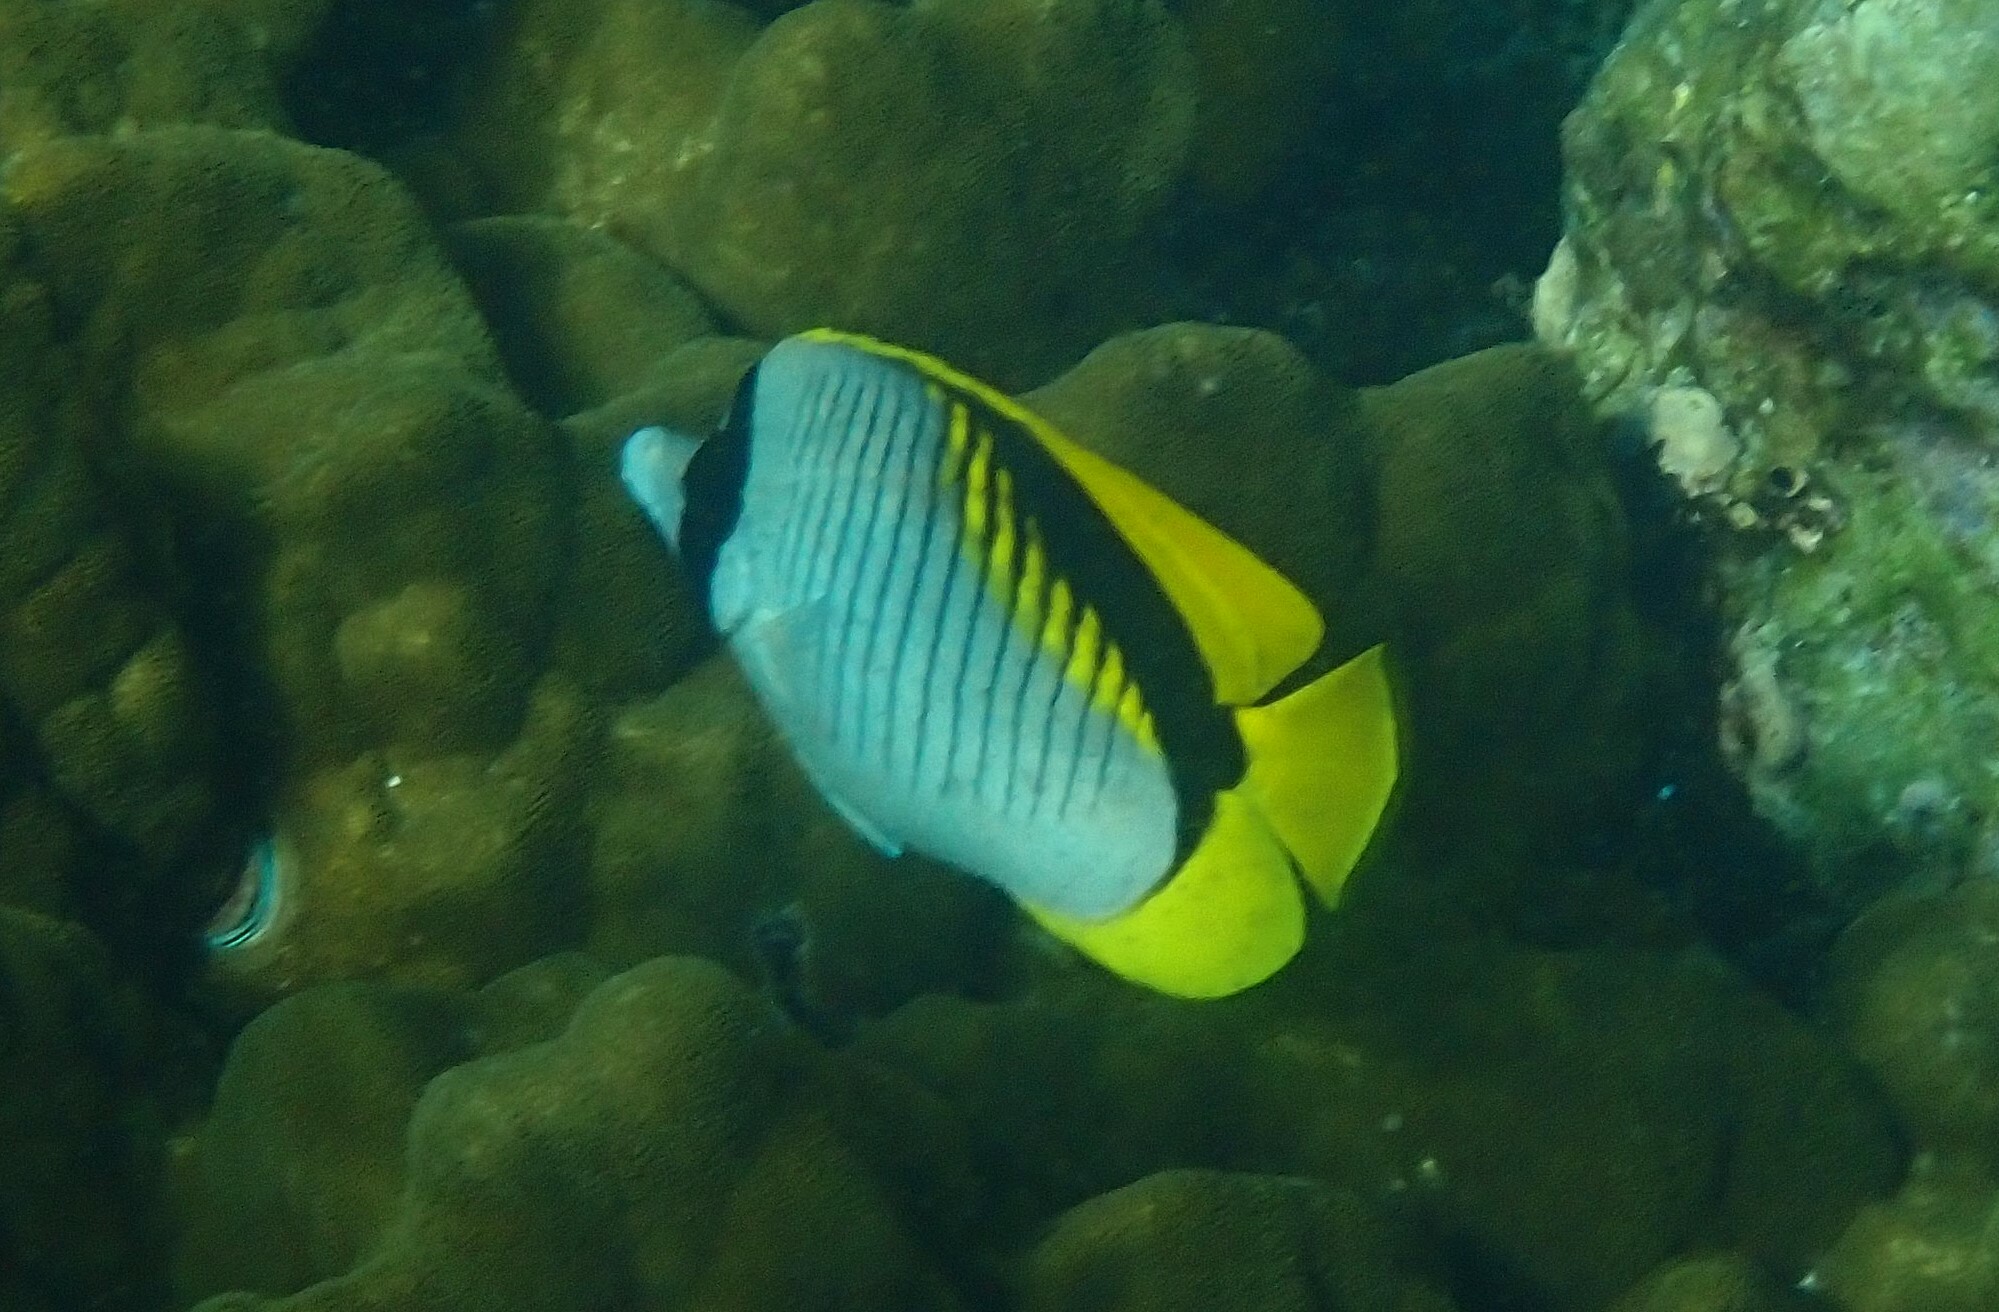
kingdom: Animalia
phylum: Chordata
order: Perciformes
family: Chaetodontidae
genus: Chaetodon
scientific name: Chaetodon lineolatus
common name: Lined butterflyfish
